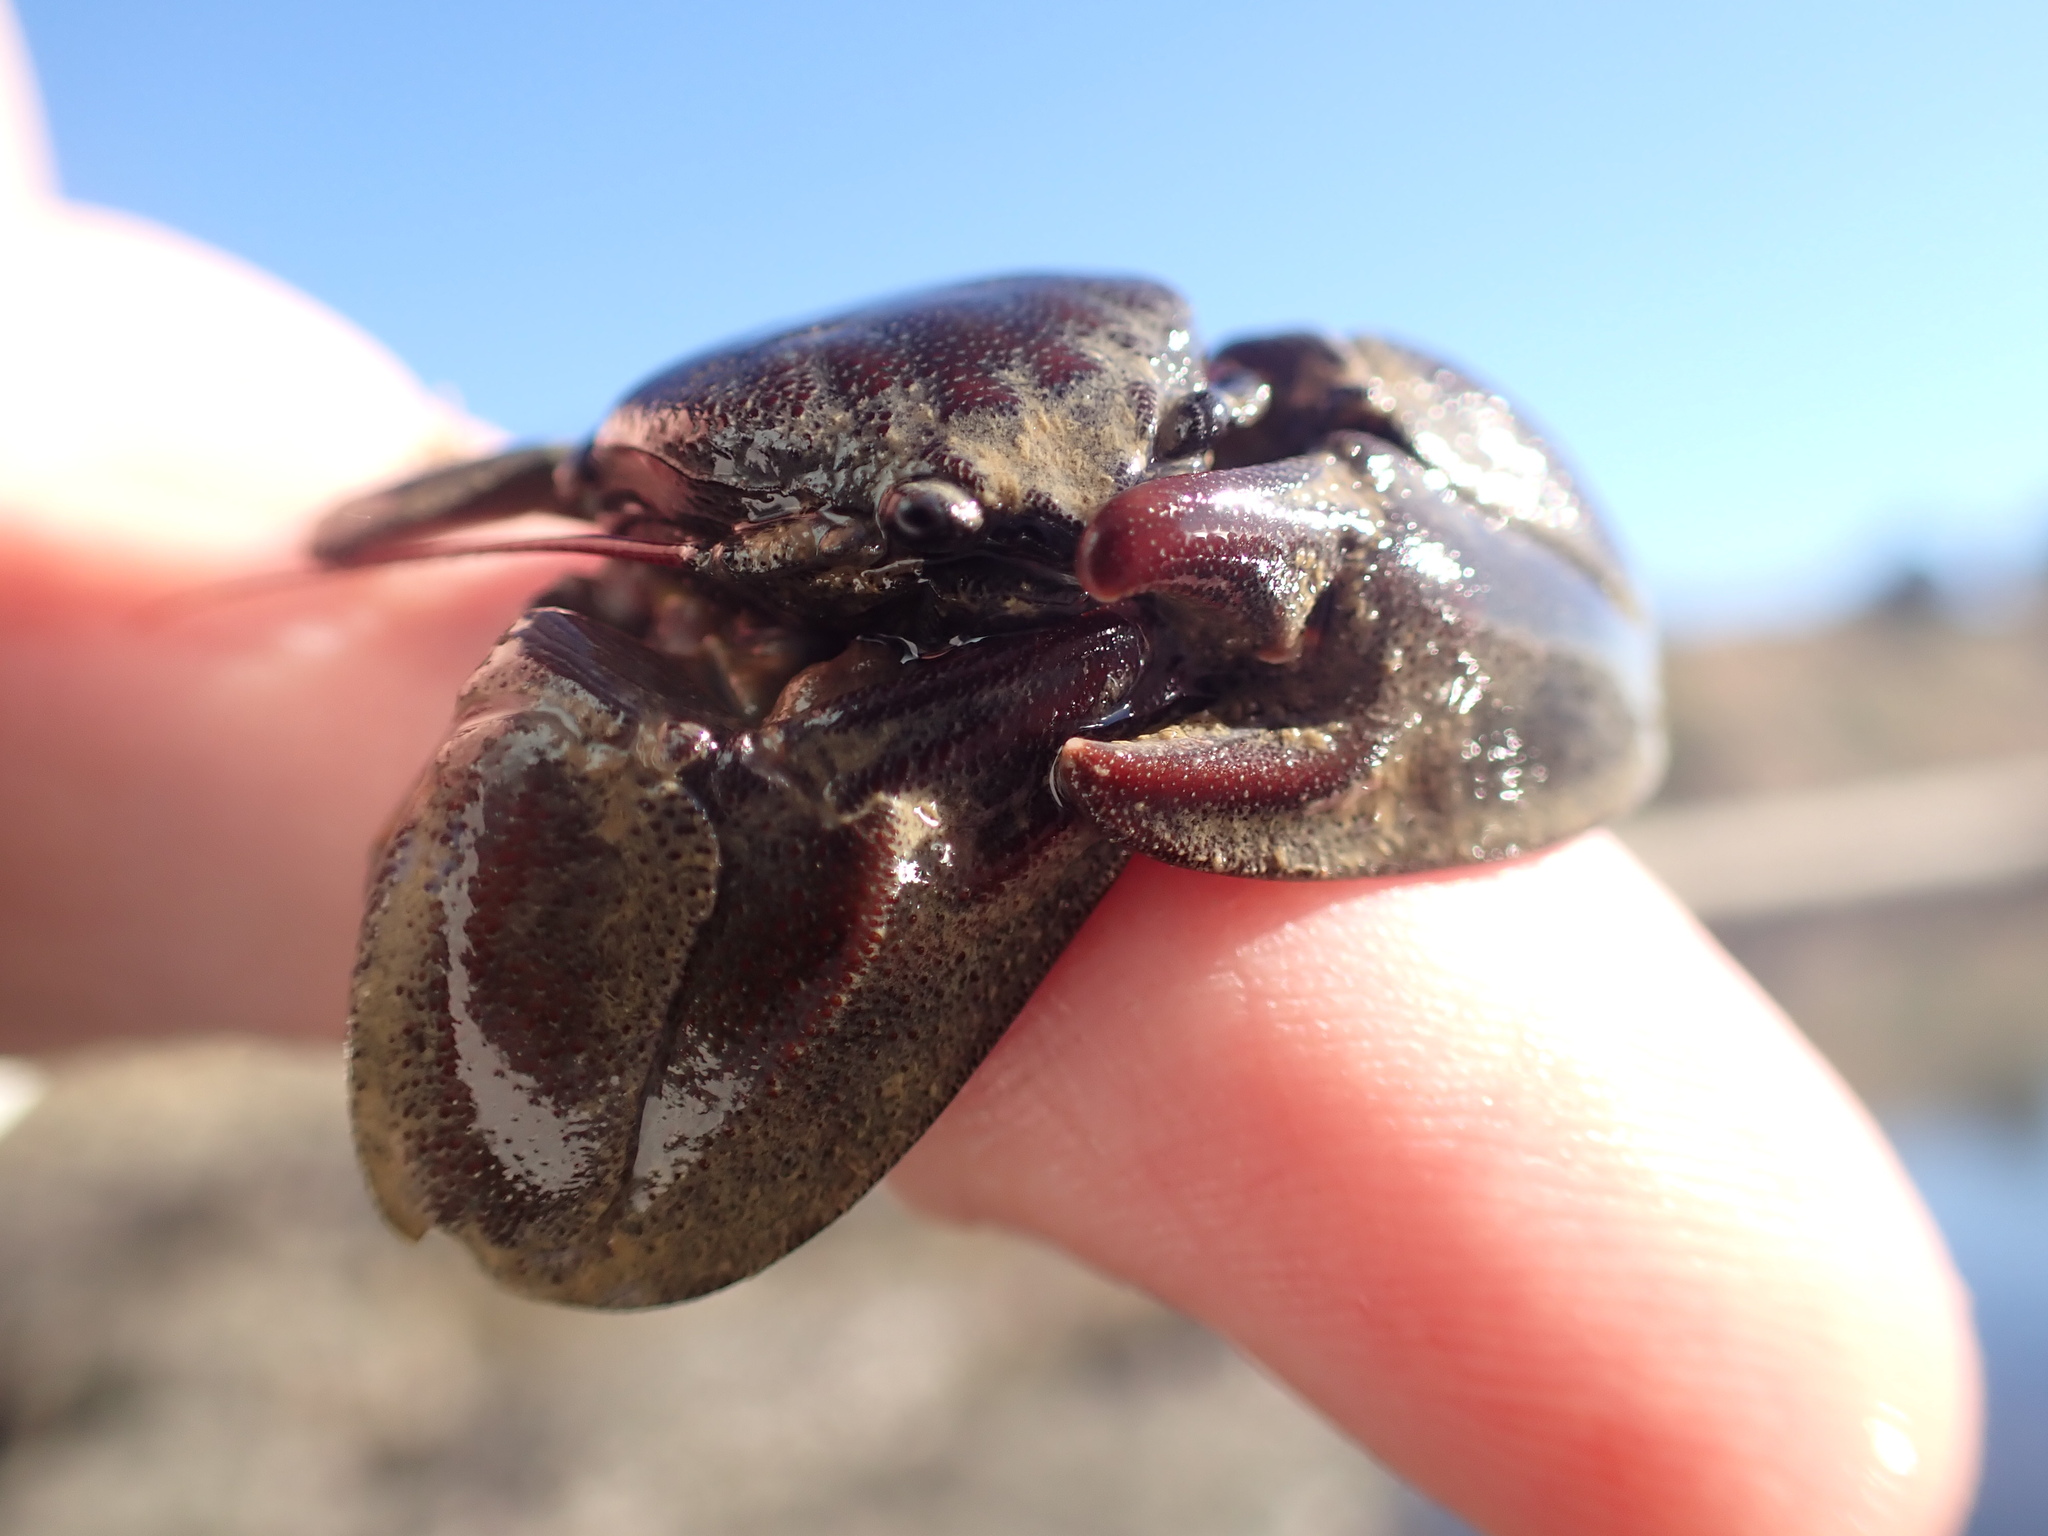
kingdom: Animalia
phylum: Arthropoda
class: Malacostraca
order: Decapoda
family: Porcellanidae
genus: Petrolisthes
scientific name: Petrolisthes cinctipes
